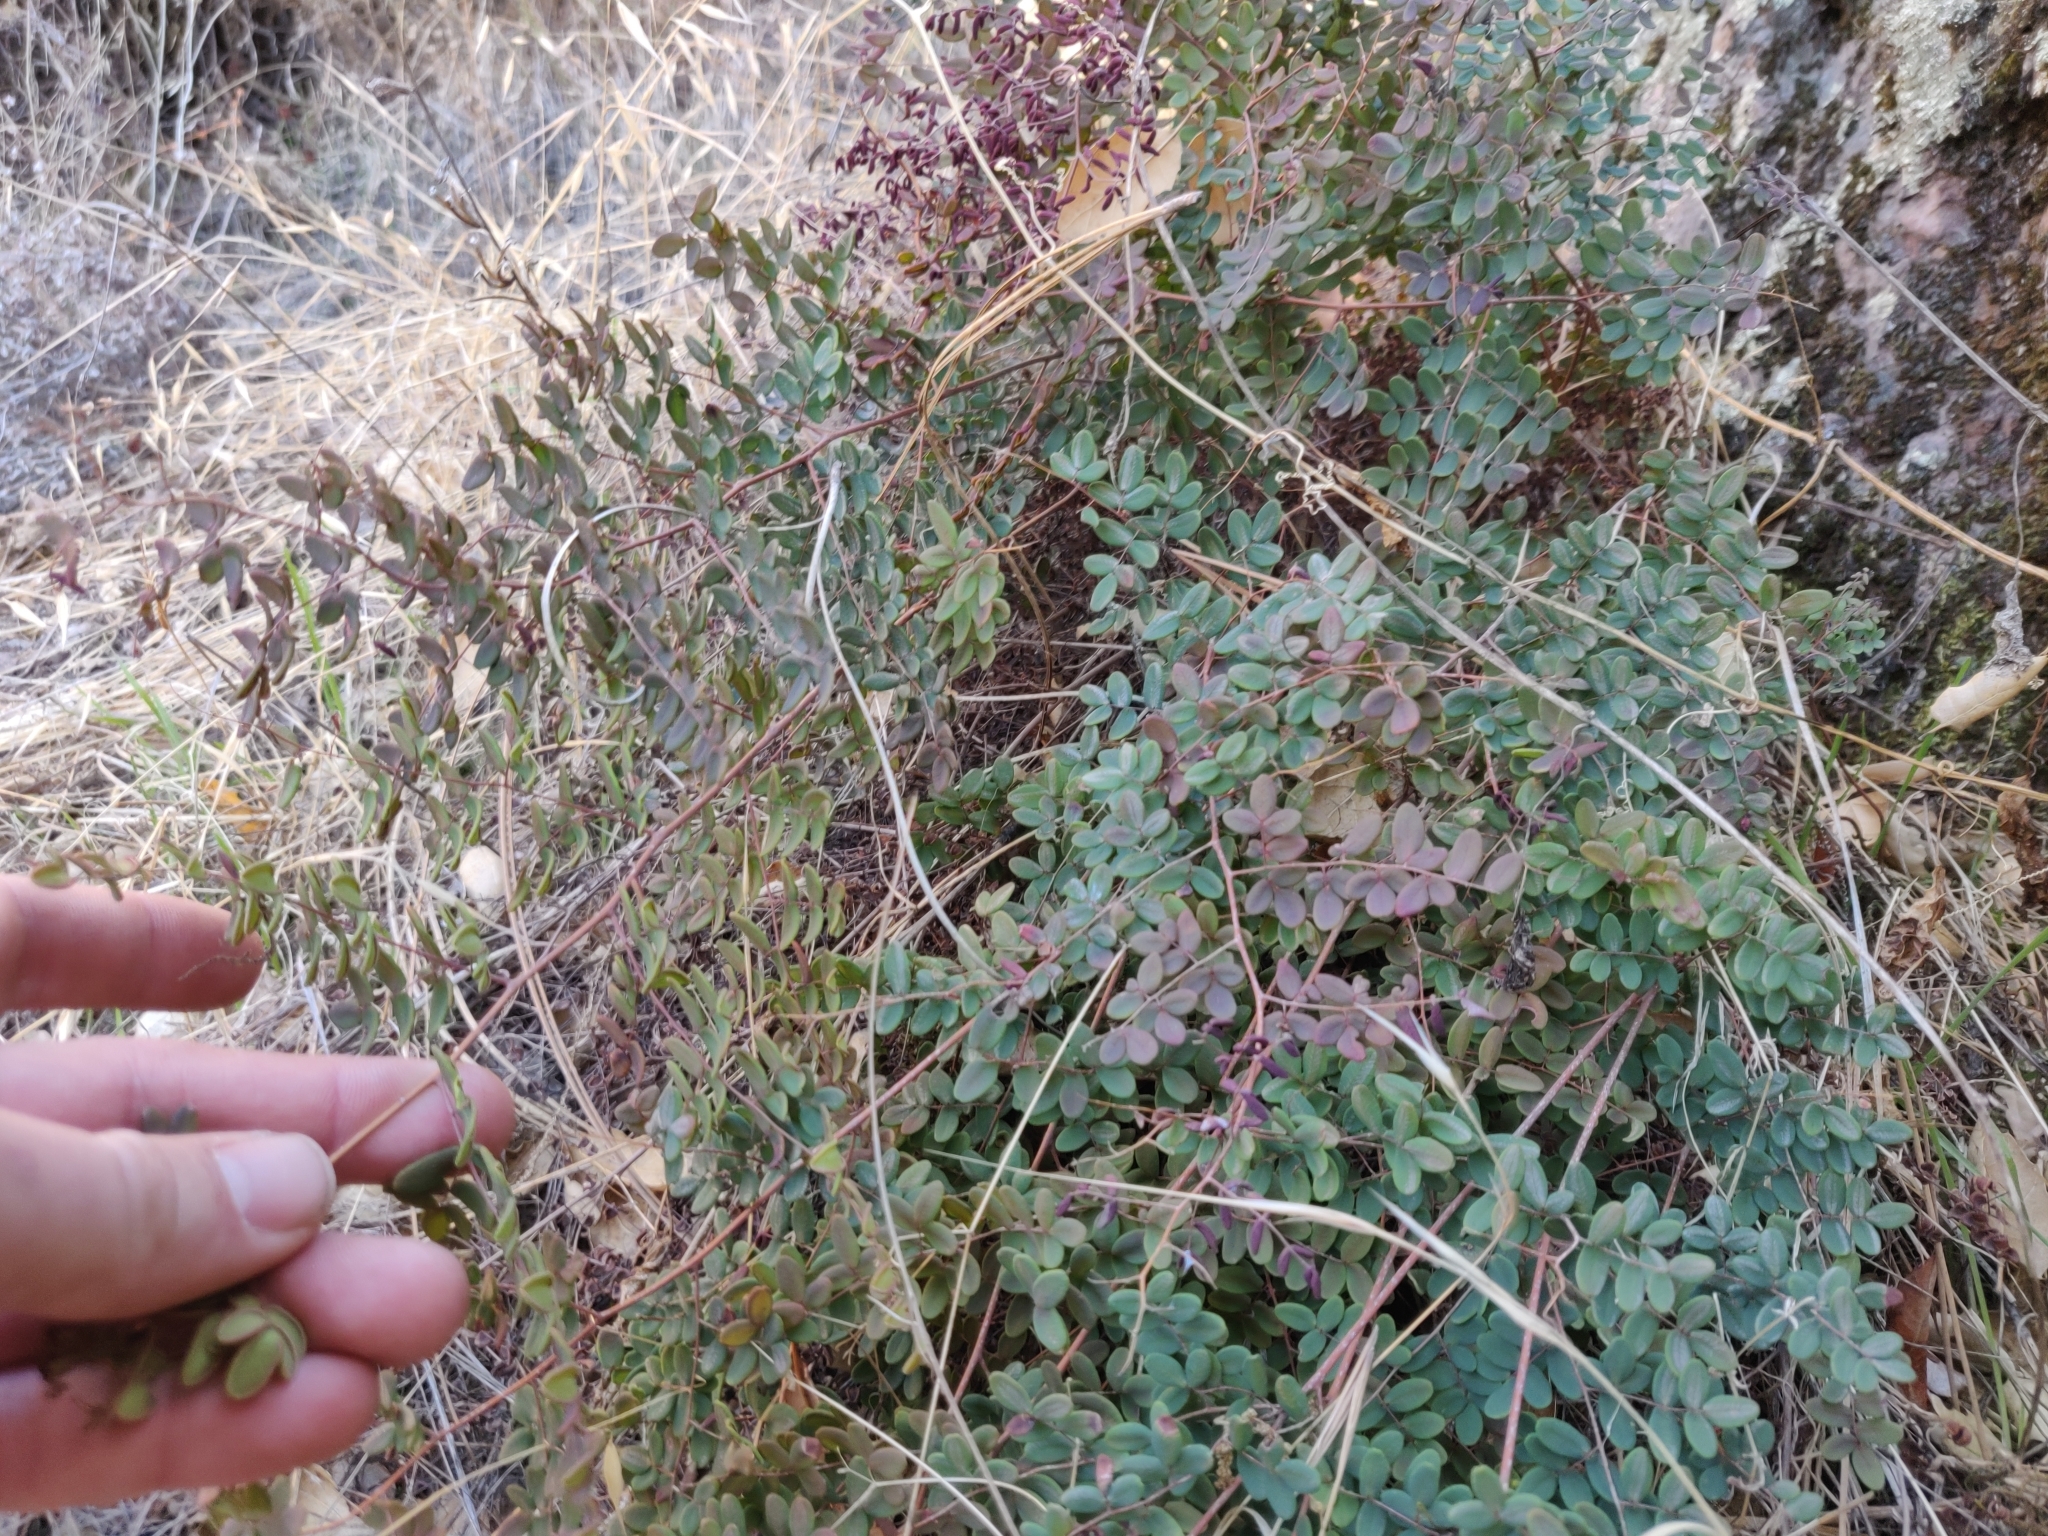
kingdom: Plantae
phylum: Tracheophyta
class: Polypodiopsida
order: Polypodiales
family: Pteridaceae
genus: Pellaea
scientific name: Pellaea andromedifolia
